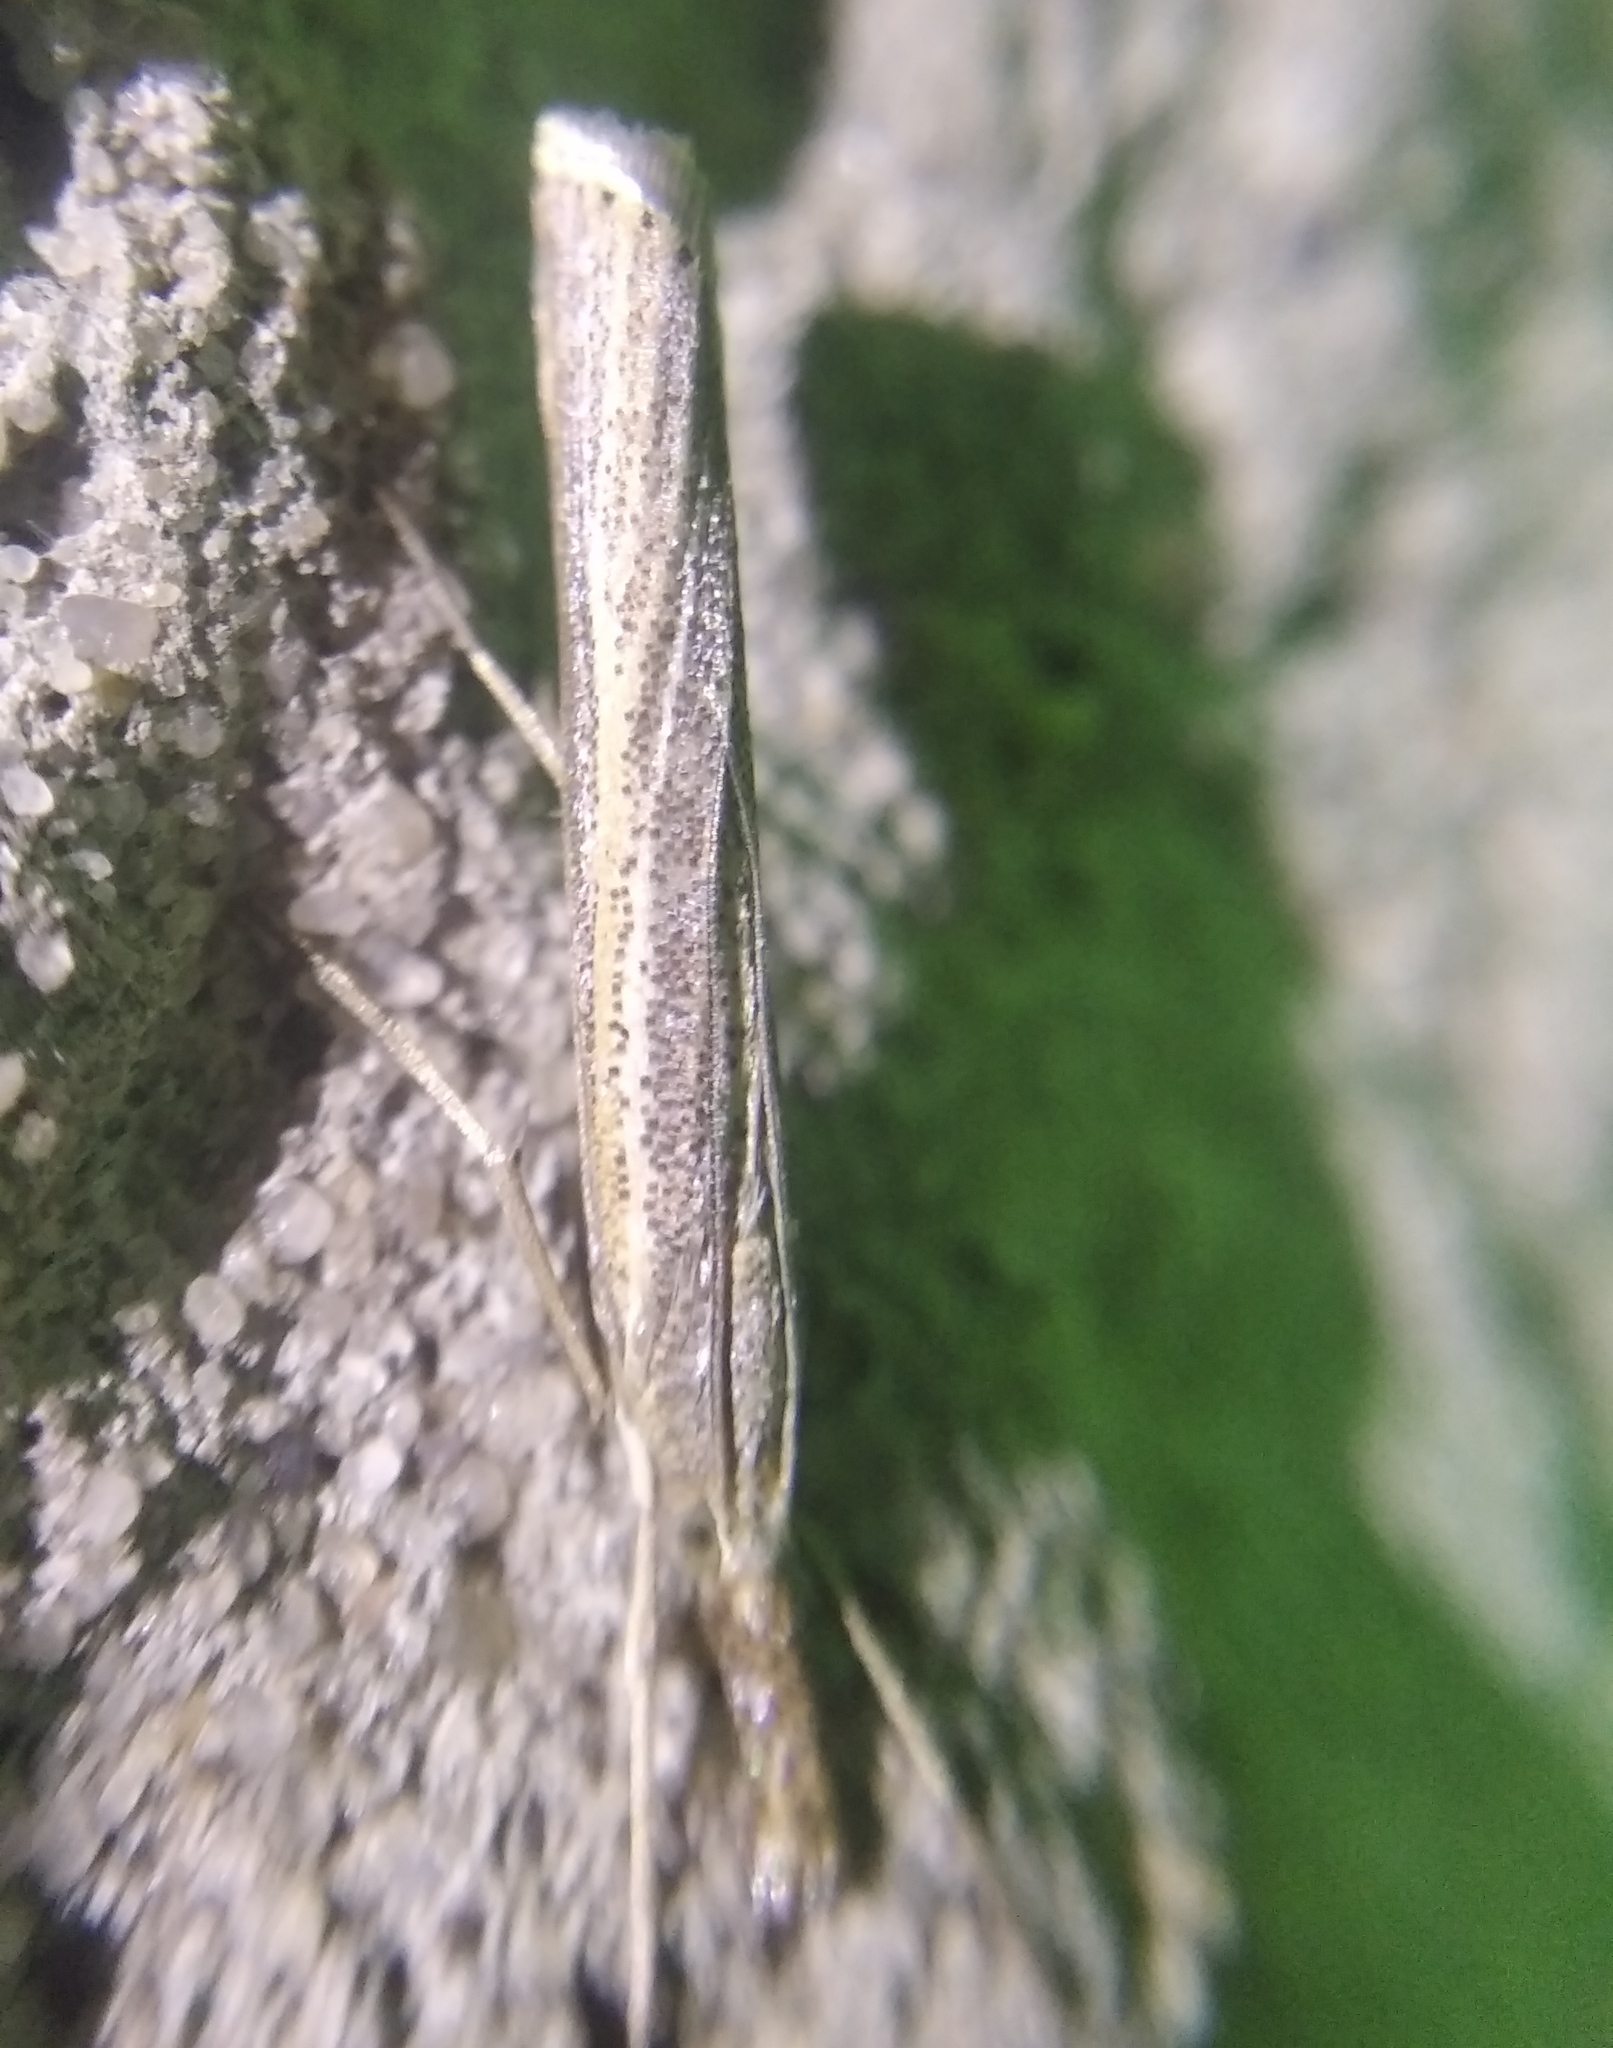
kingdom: Animalia
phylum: Arthropoda
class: Insecta
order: Lepidoptera
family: Crambidae
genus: Agriphila
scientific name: Agriphila poliellus
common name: Grey grass-veneer
